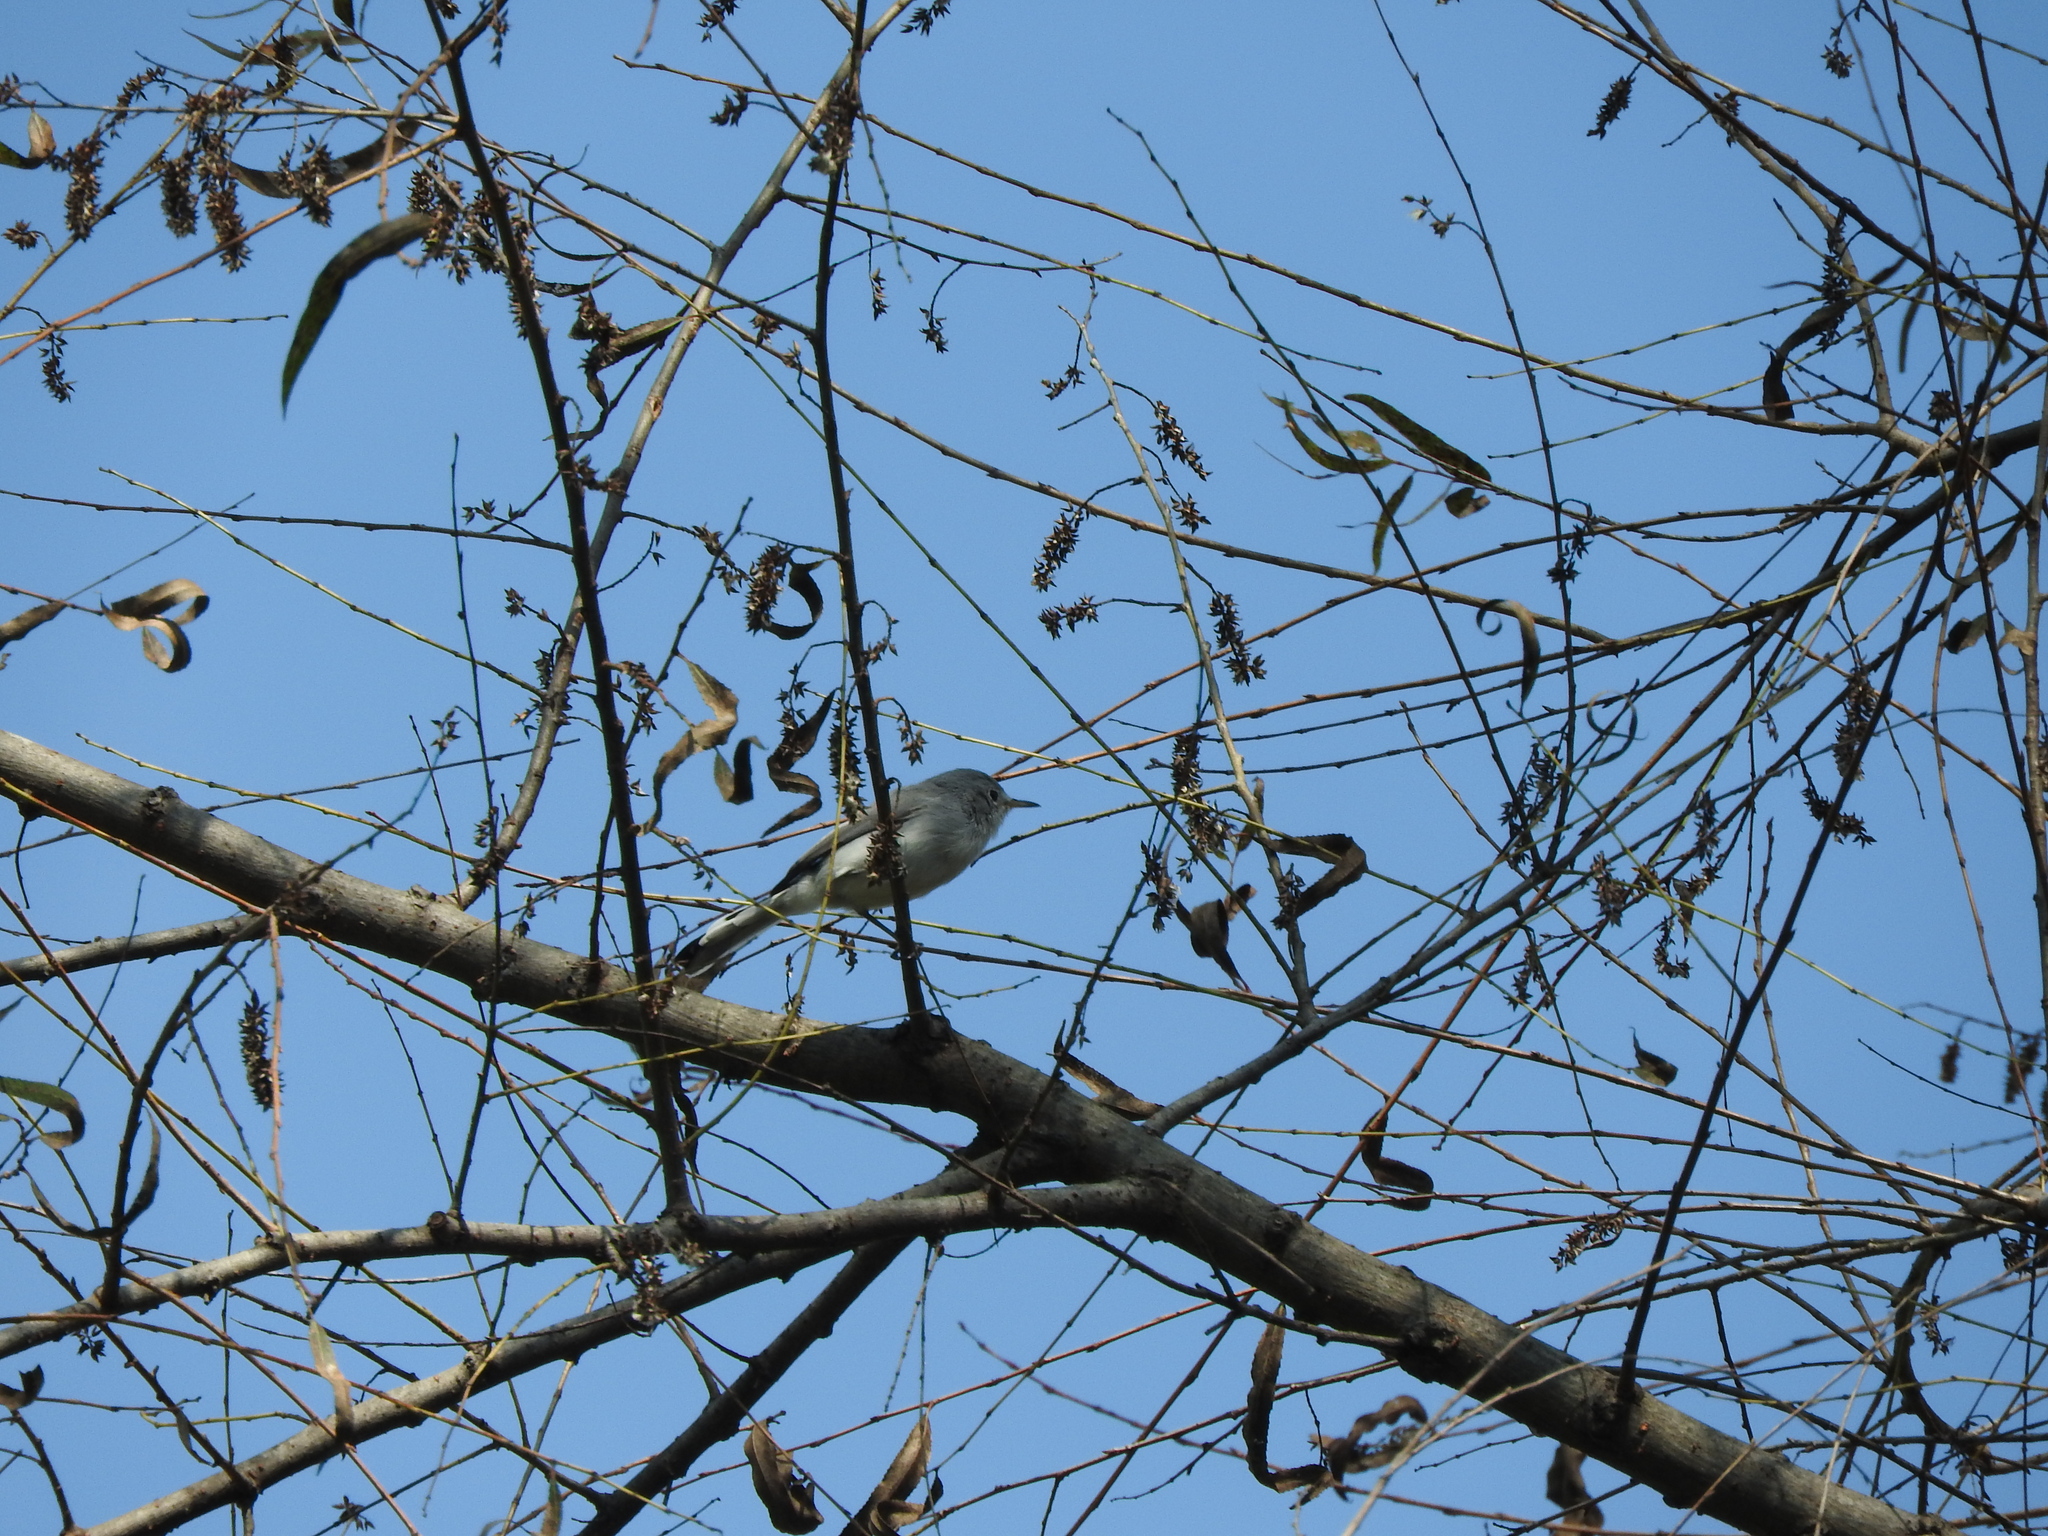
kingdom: Animalia
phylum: Chordata
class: Aves
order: Passeriformes
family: Polioptilidae
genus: Polioptila
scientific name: Polioptila caerulea
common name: Blue-gray gnatcatcher
